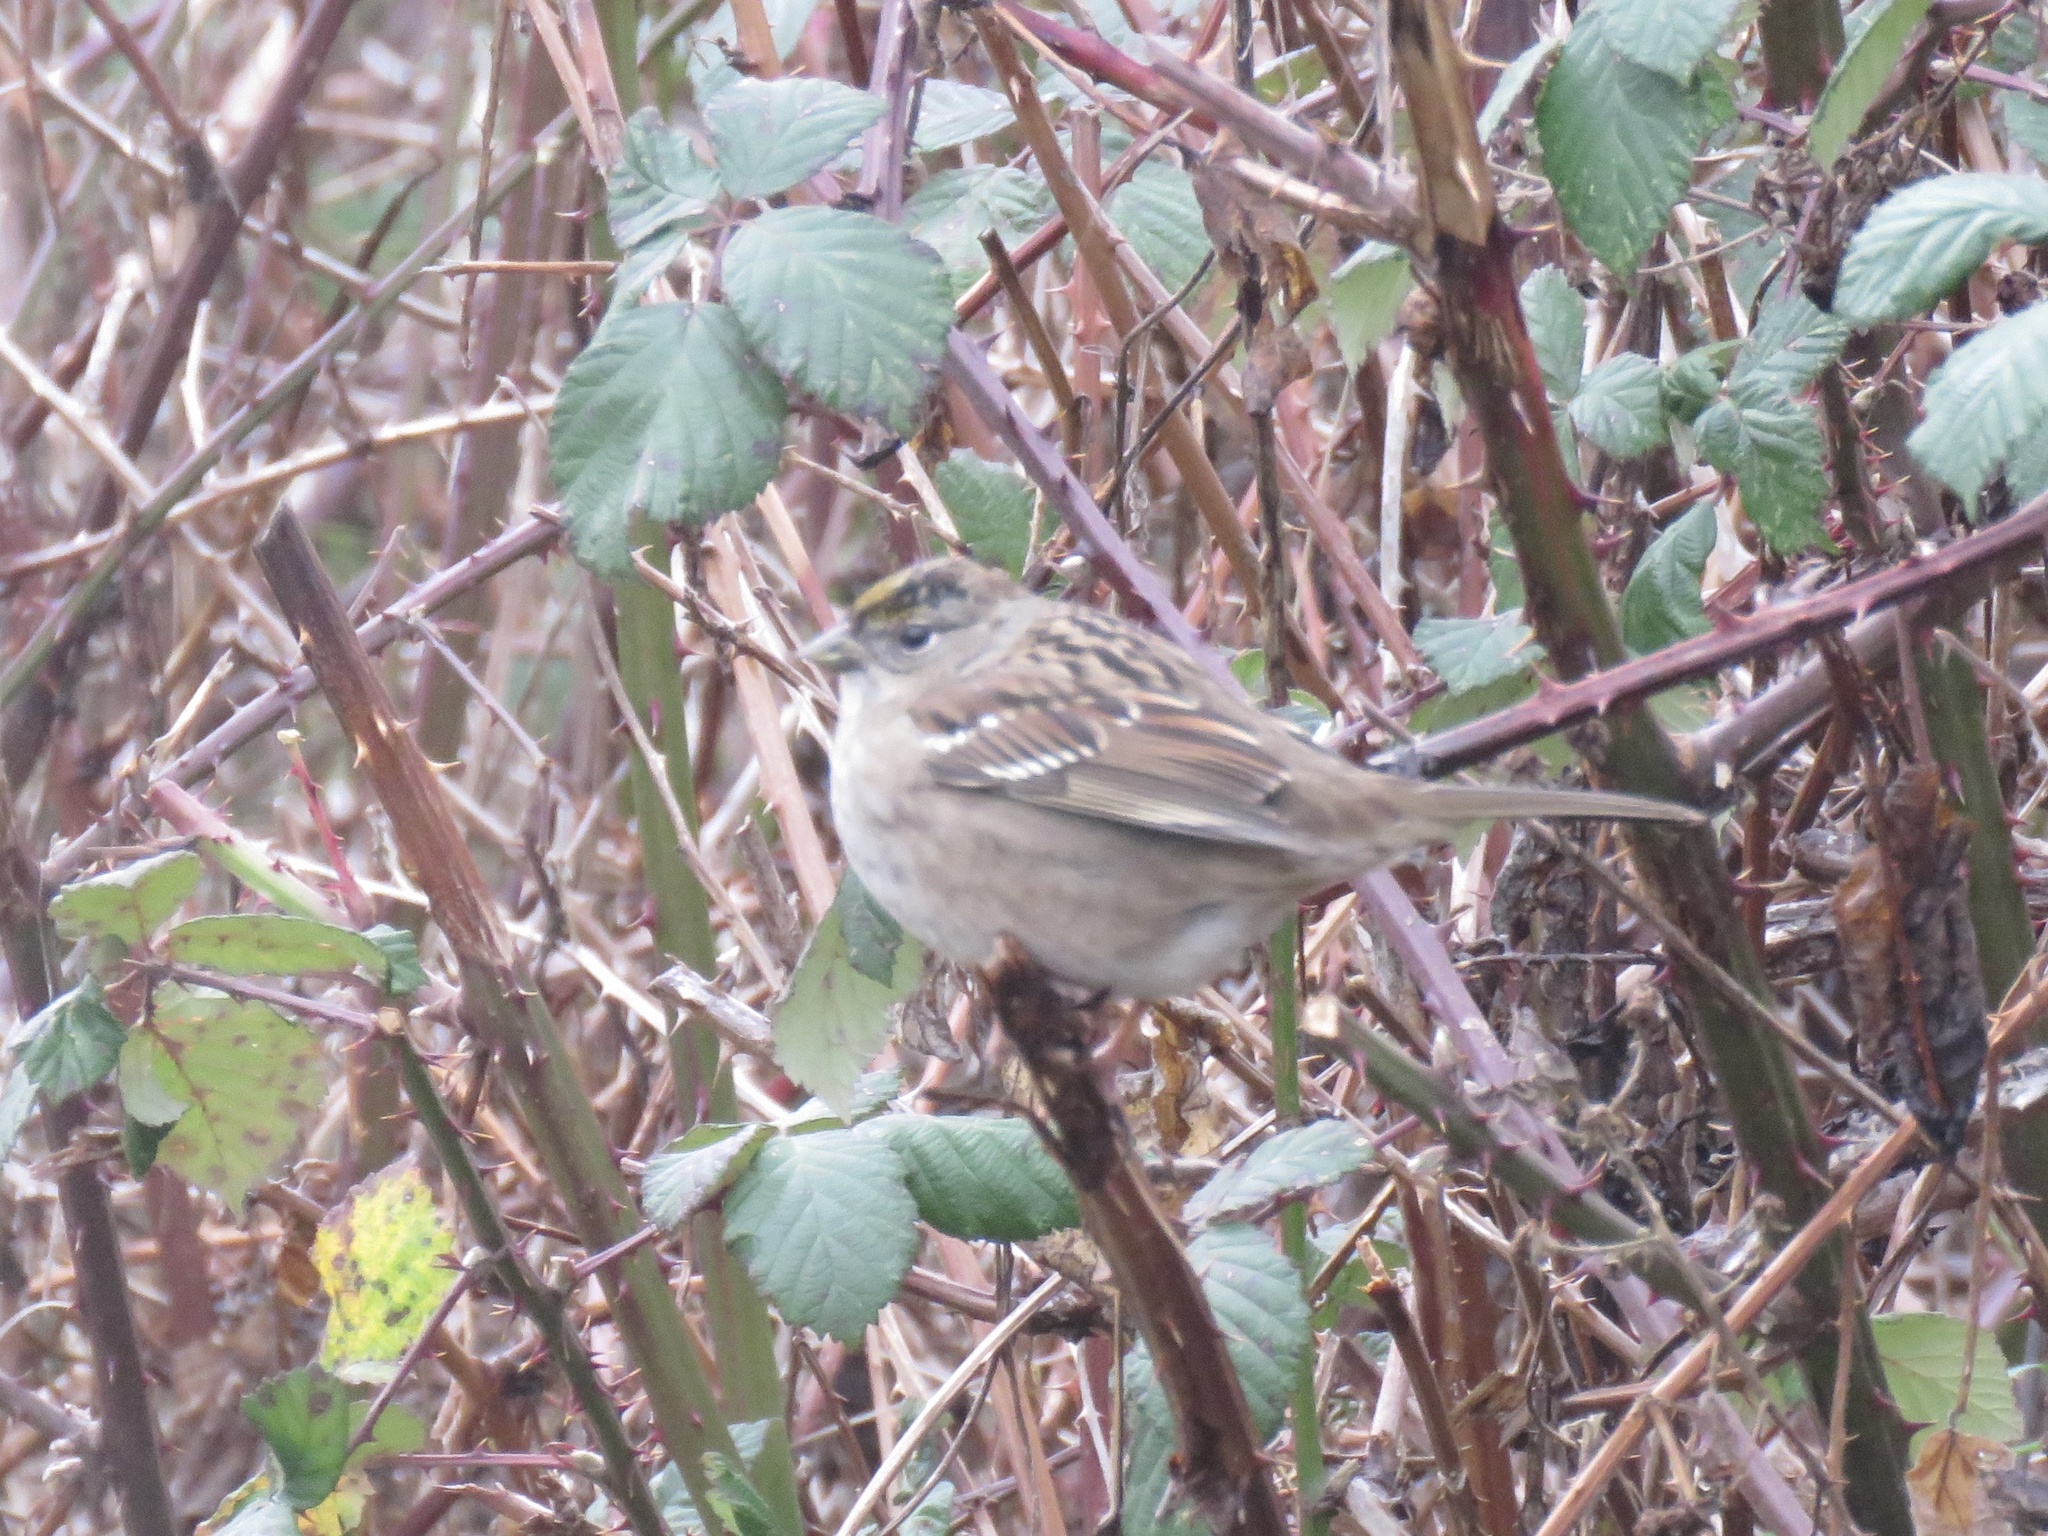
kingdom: Animalia
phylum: Chordata
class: Aves
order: Passeriformes
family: Passerellidae
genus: Zonotrichia
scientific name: Zonotrichia atricapilla
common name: Golden-crowned sparrow
